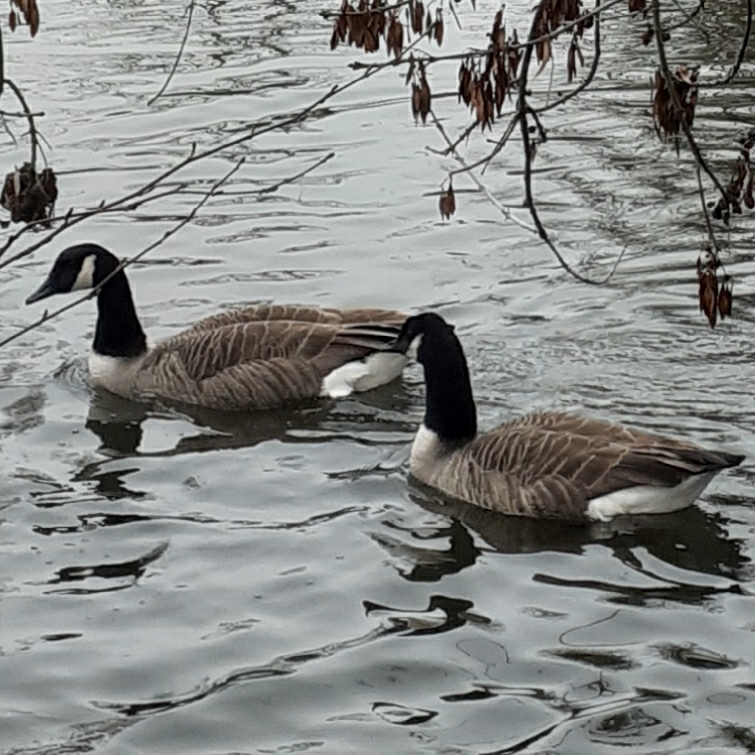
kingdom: Animalia
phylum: Chordata
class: Aves
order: Anseriformes
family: Anatidae
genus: Branta
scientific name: Branta canadensis
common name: Canada goose
